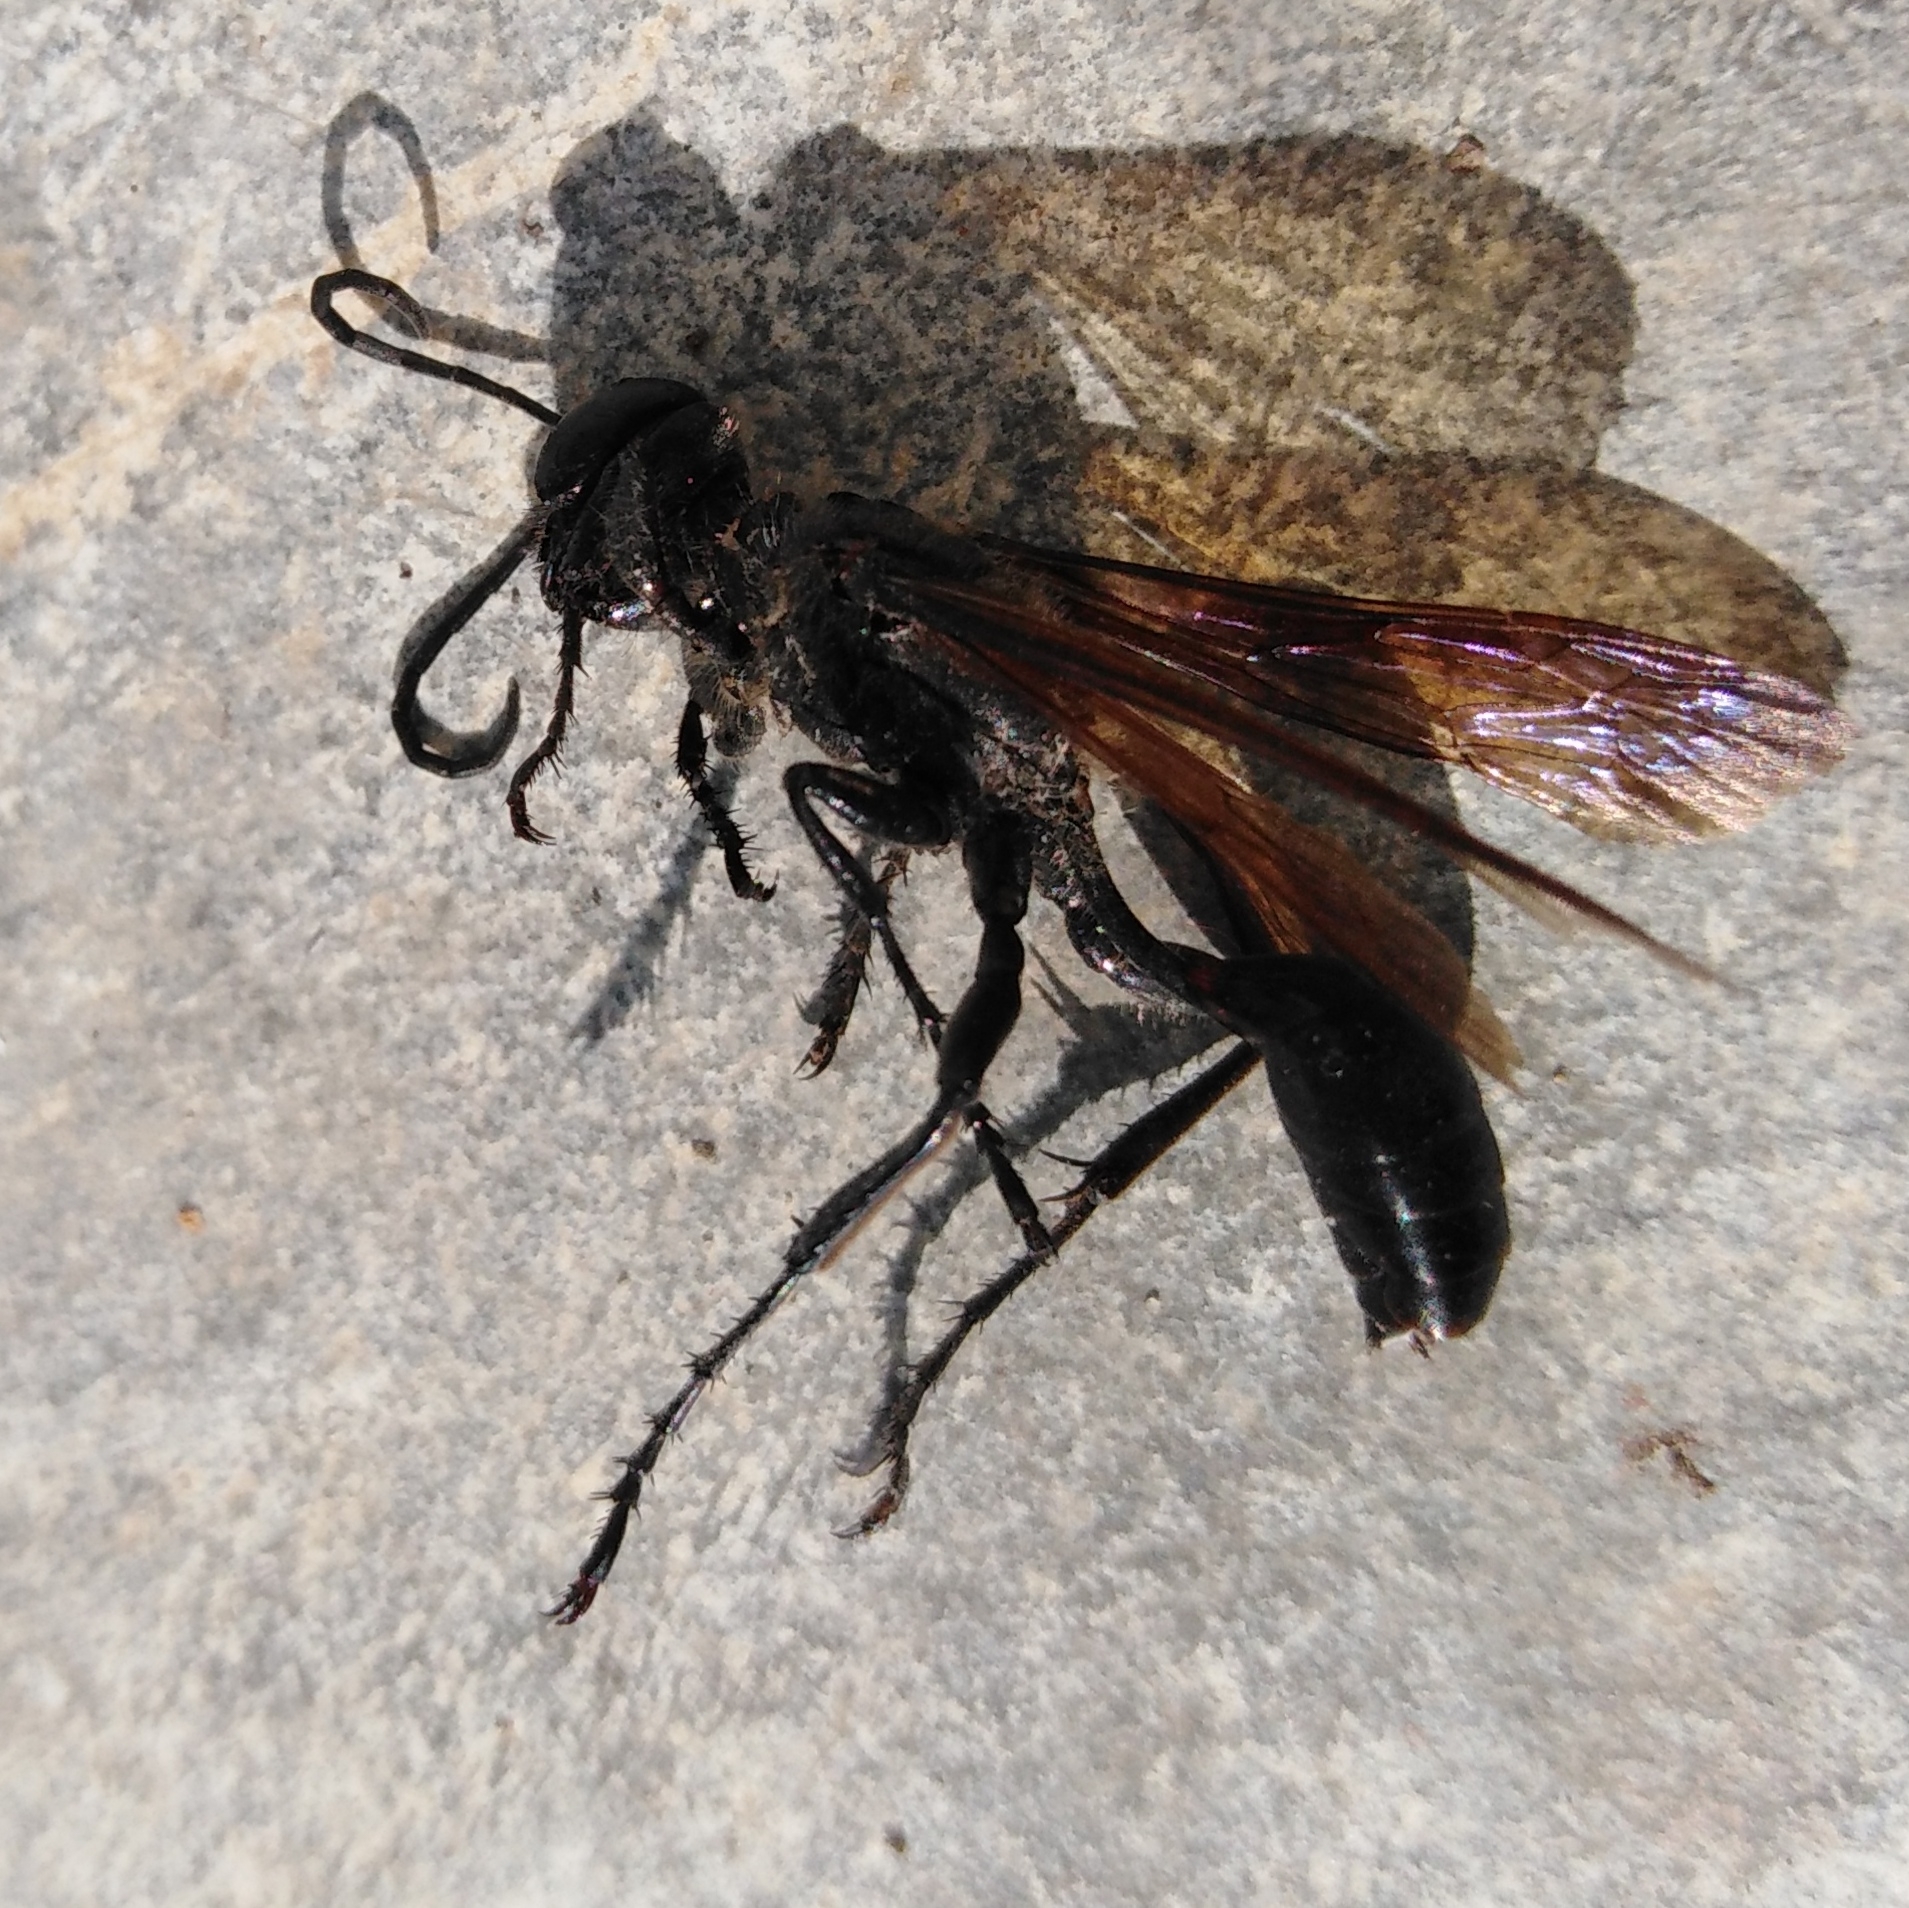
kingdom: Animalia
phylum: Arthropoda
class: Insecta
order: Hymenoptera
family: Sphecidae
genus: Isodontia
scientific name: Isodontia mexicana
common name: Mud dauber
